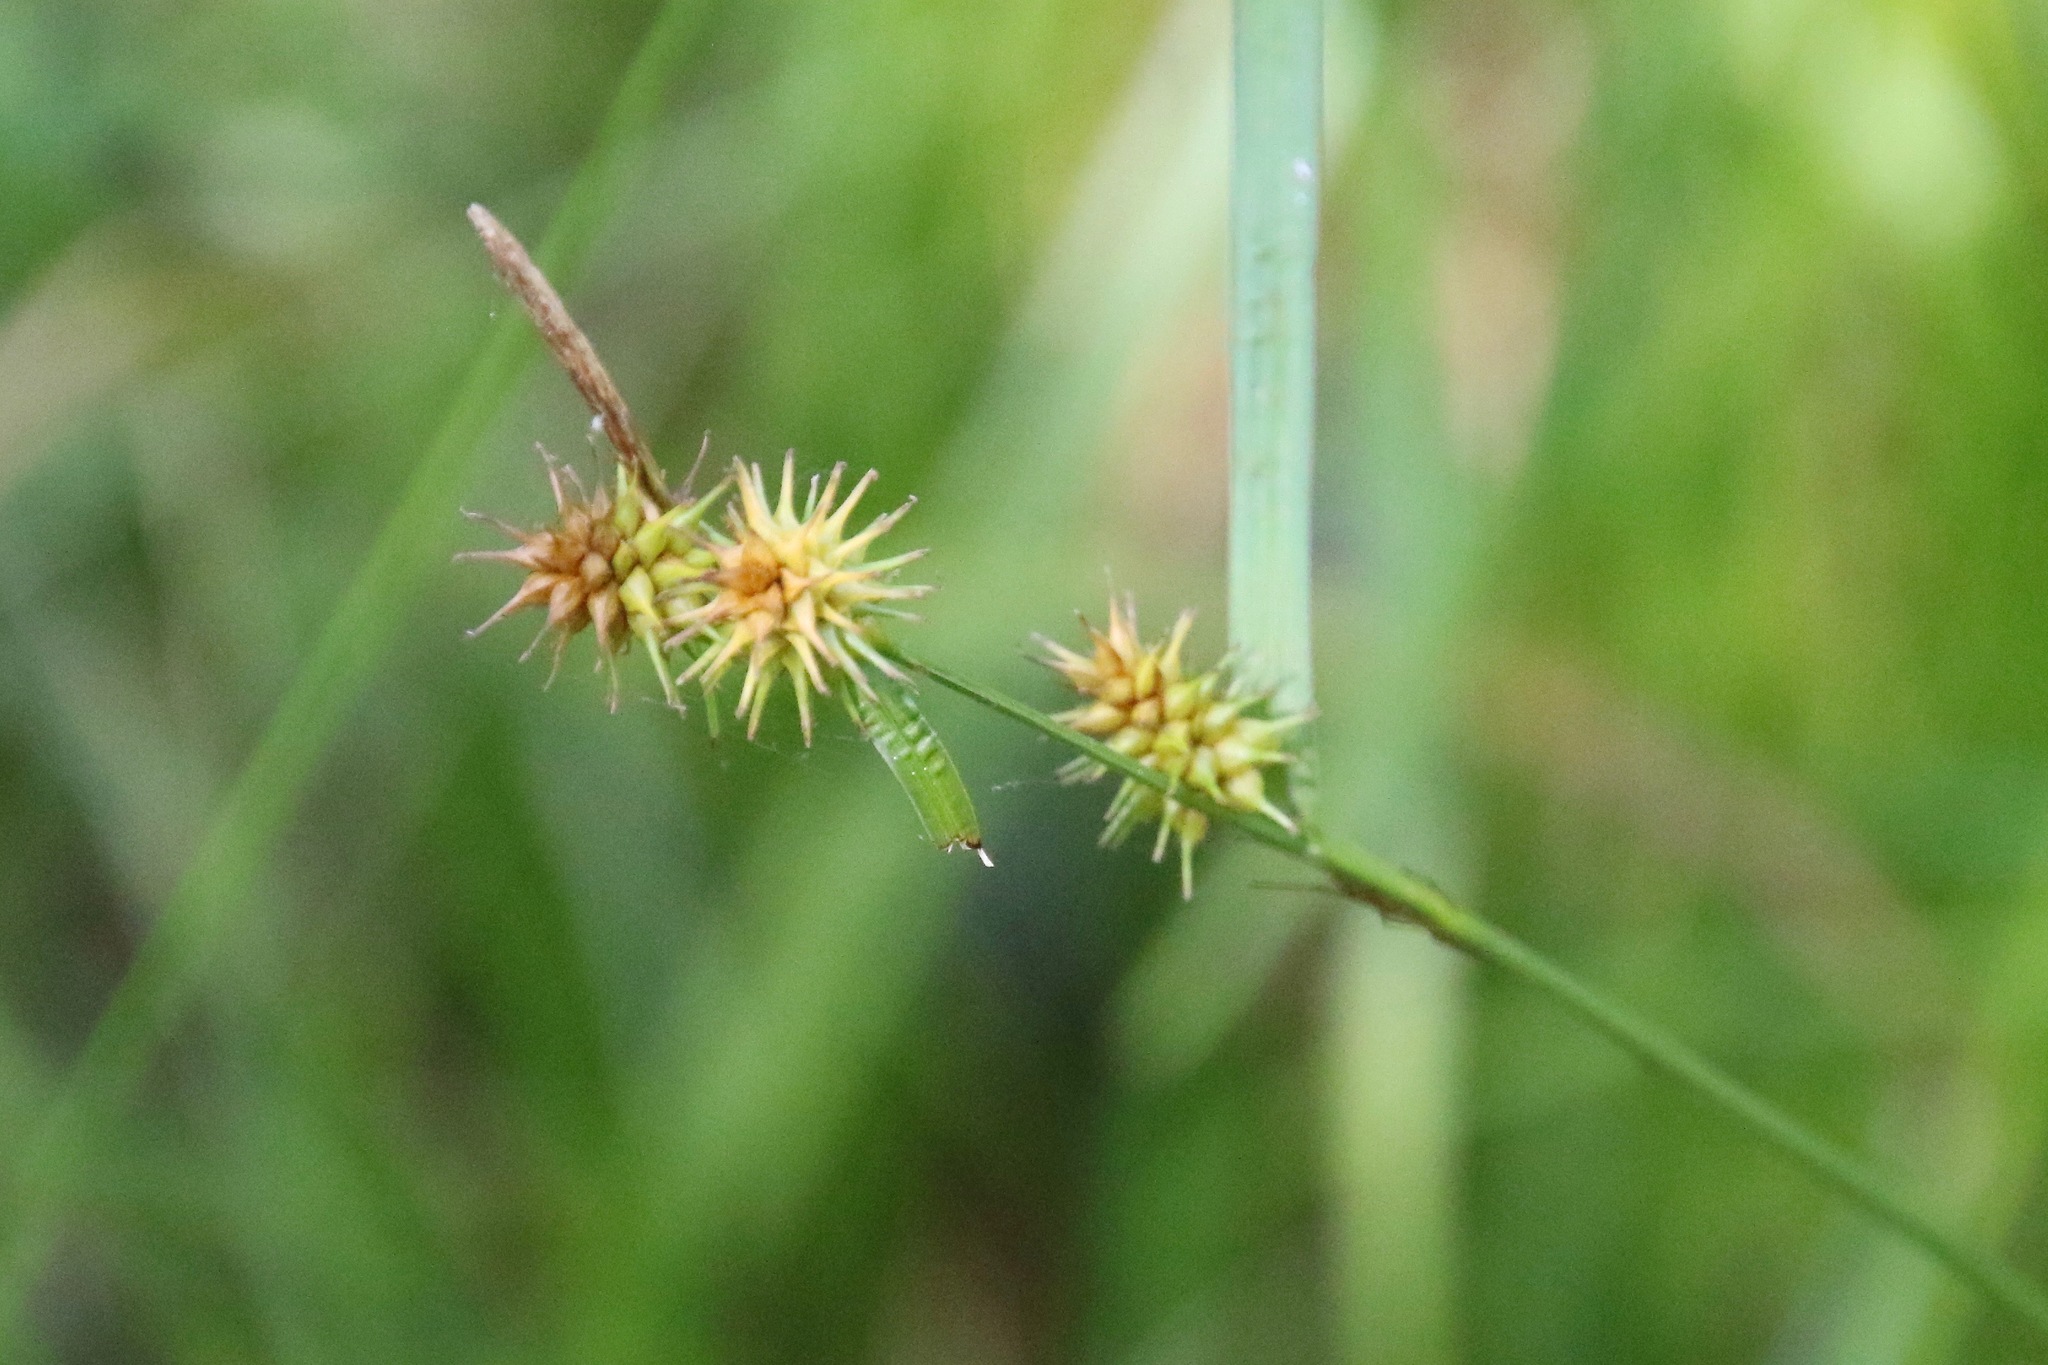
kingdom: Plantae
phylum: Tracheophyta
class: Liliopsida
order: Poales
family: Cyperaceae
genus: Carex
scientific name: Carex flava
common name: Large yellow-sedge
